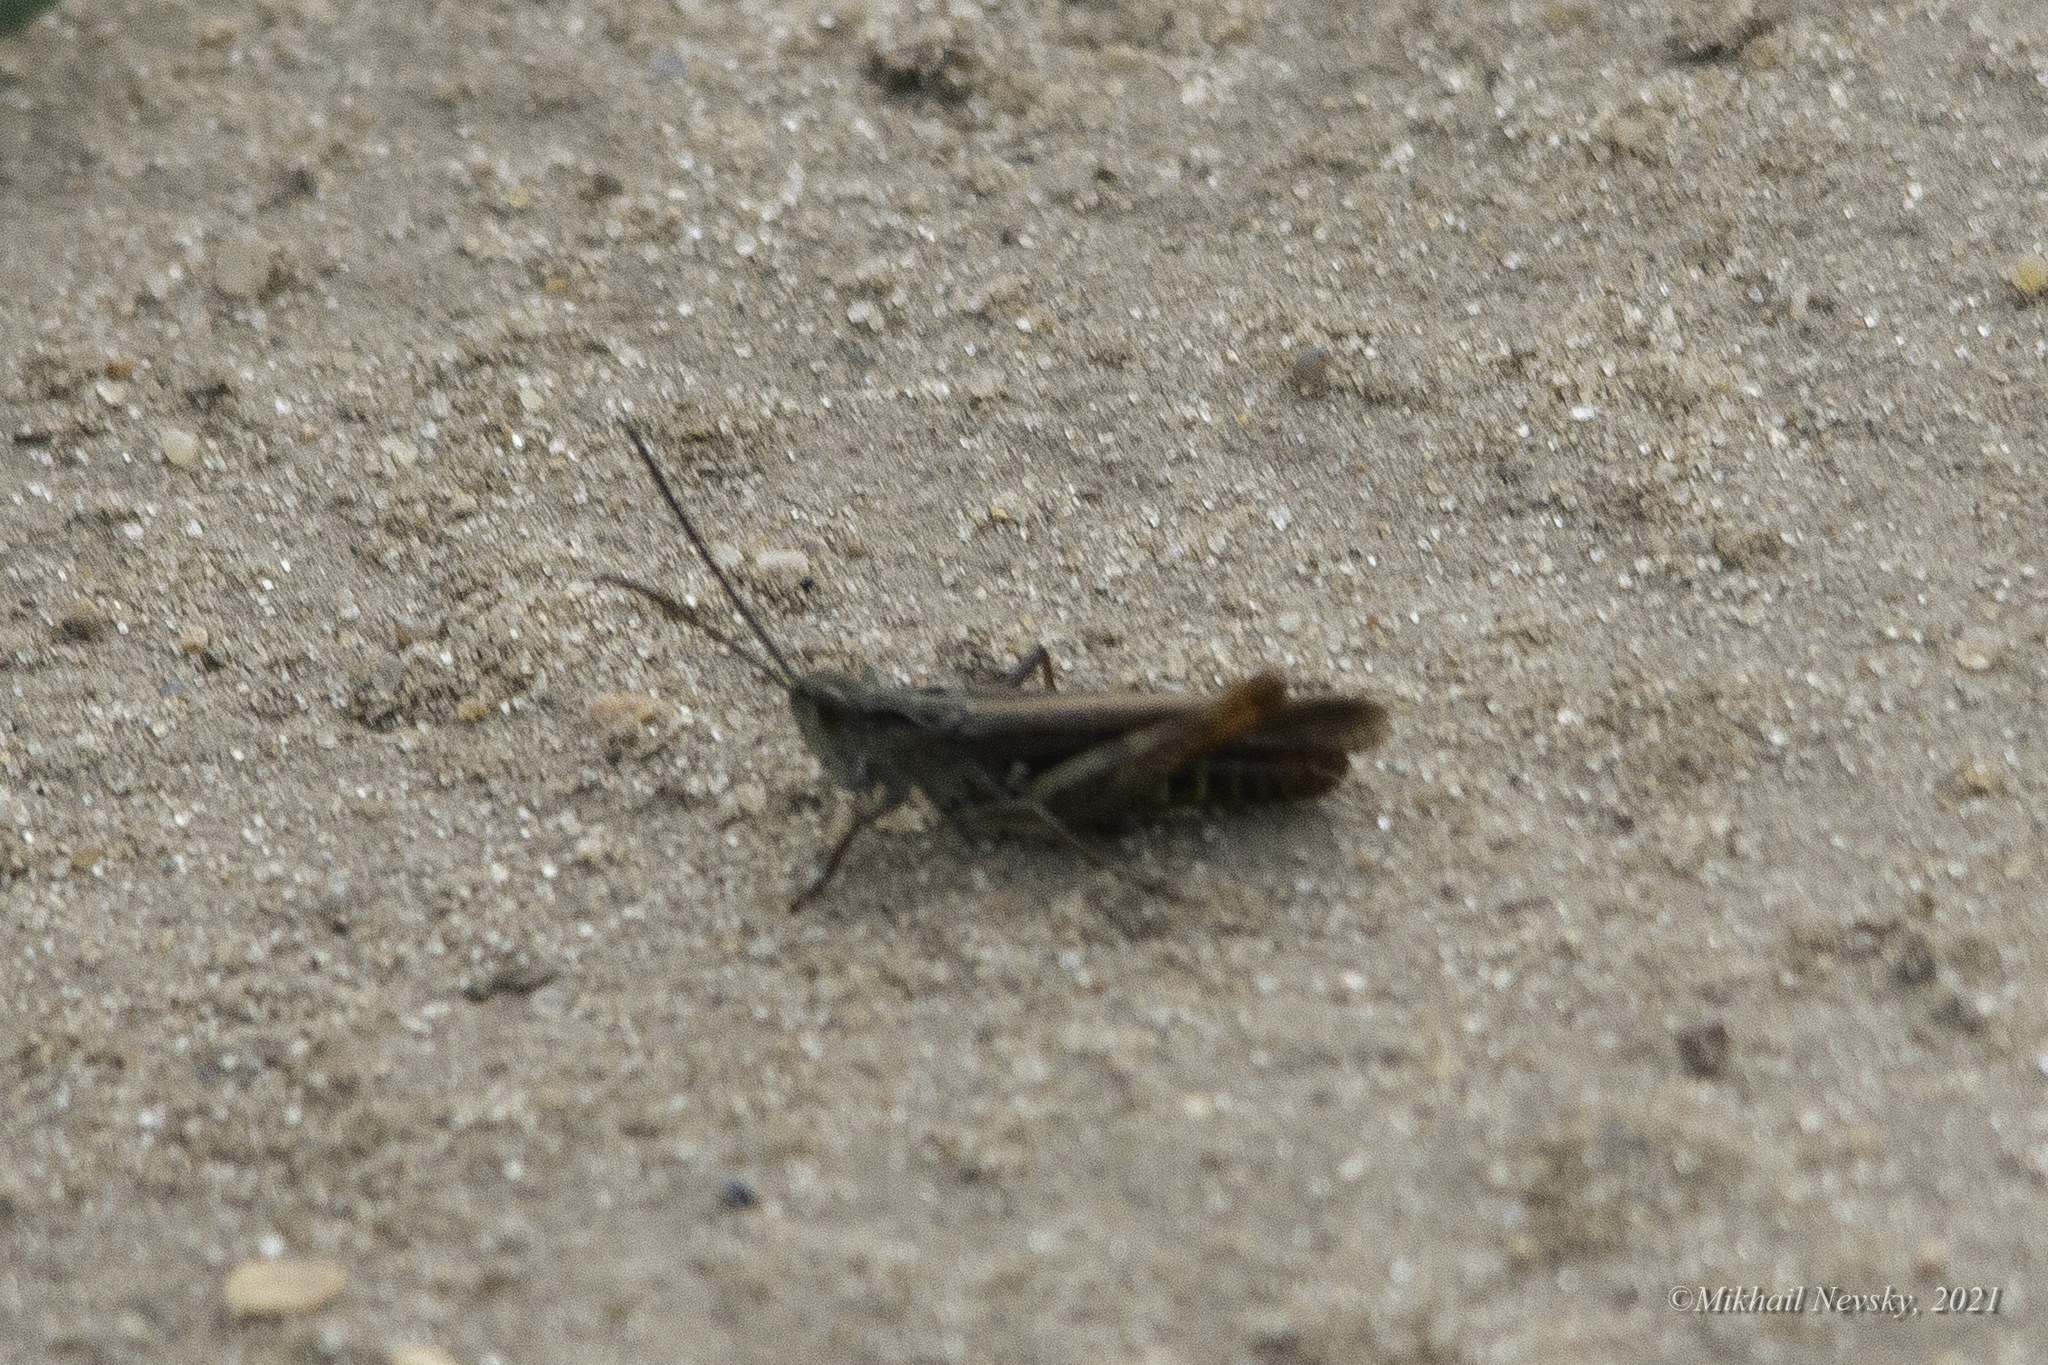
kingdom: Animalia
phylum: Arthropoda
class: Insecta
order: Orthoptera
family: Acrididae
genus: Chorthippus
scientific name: Chorthippus brunneus
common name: Field grasshopper
